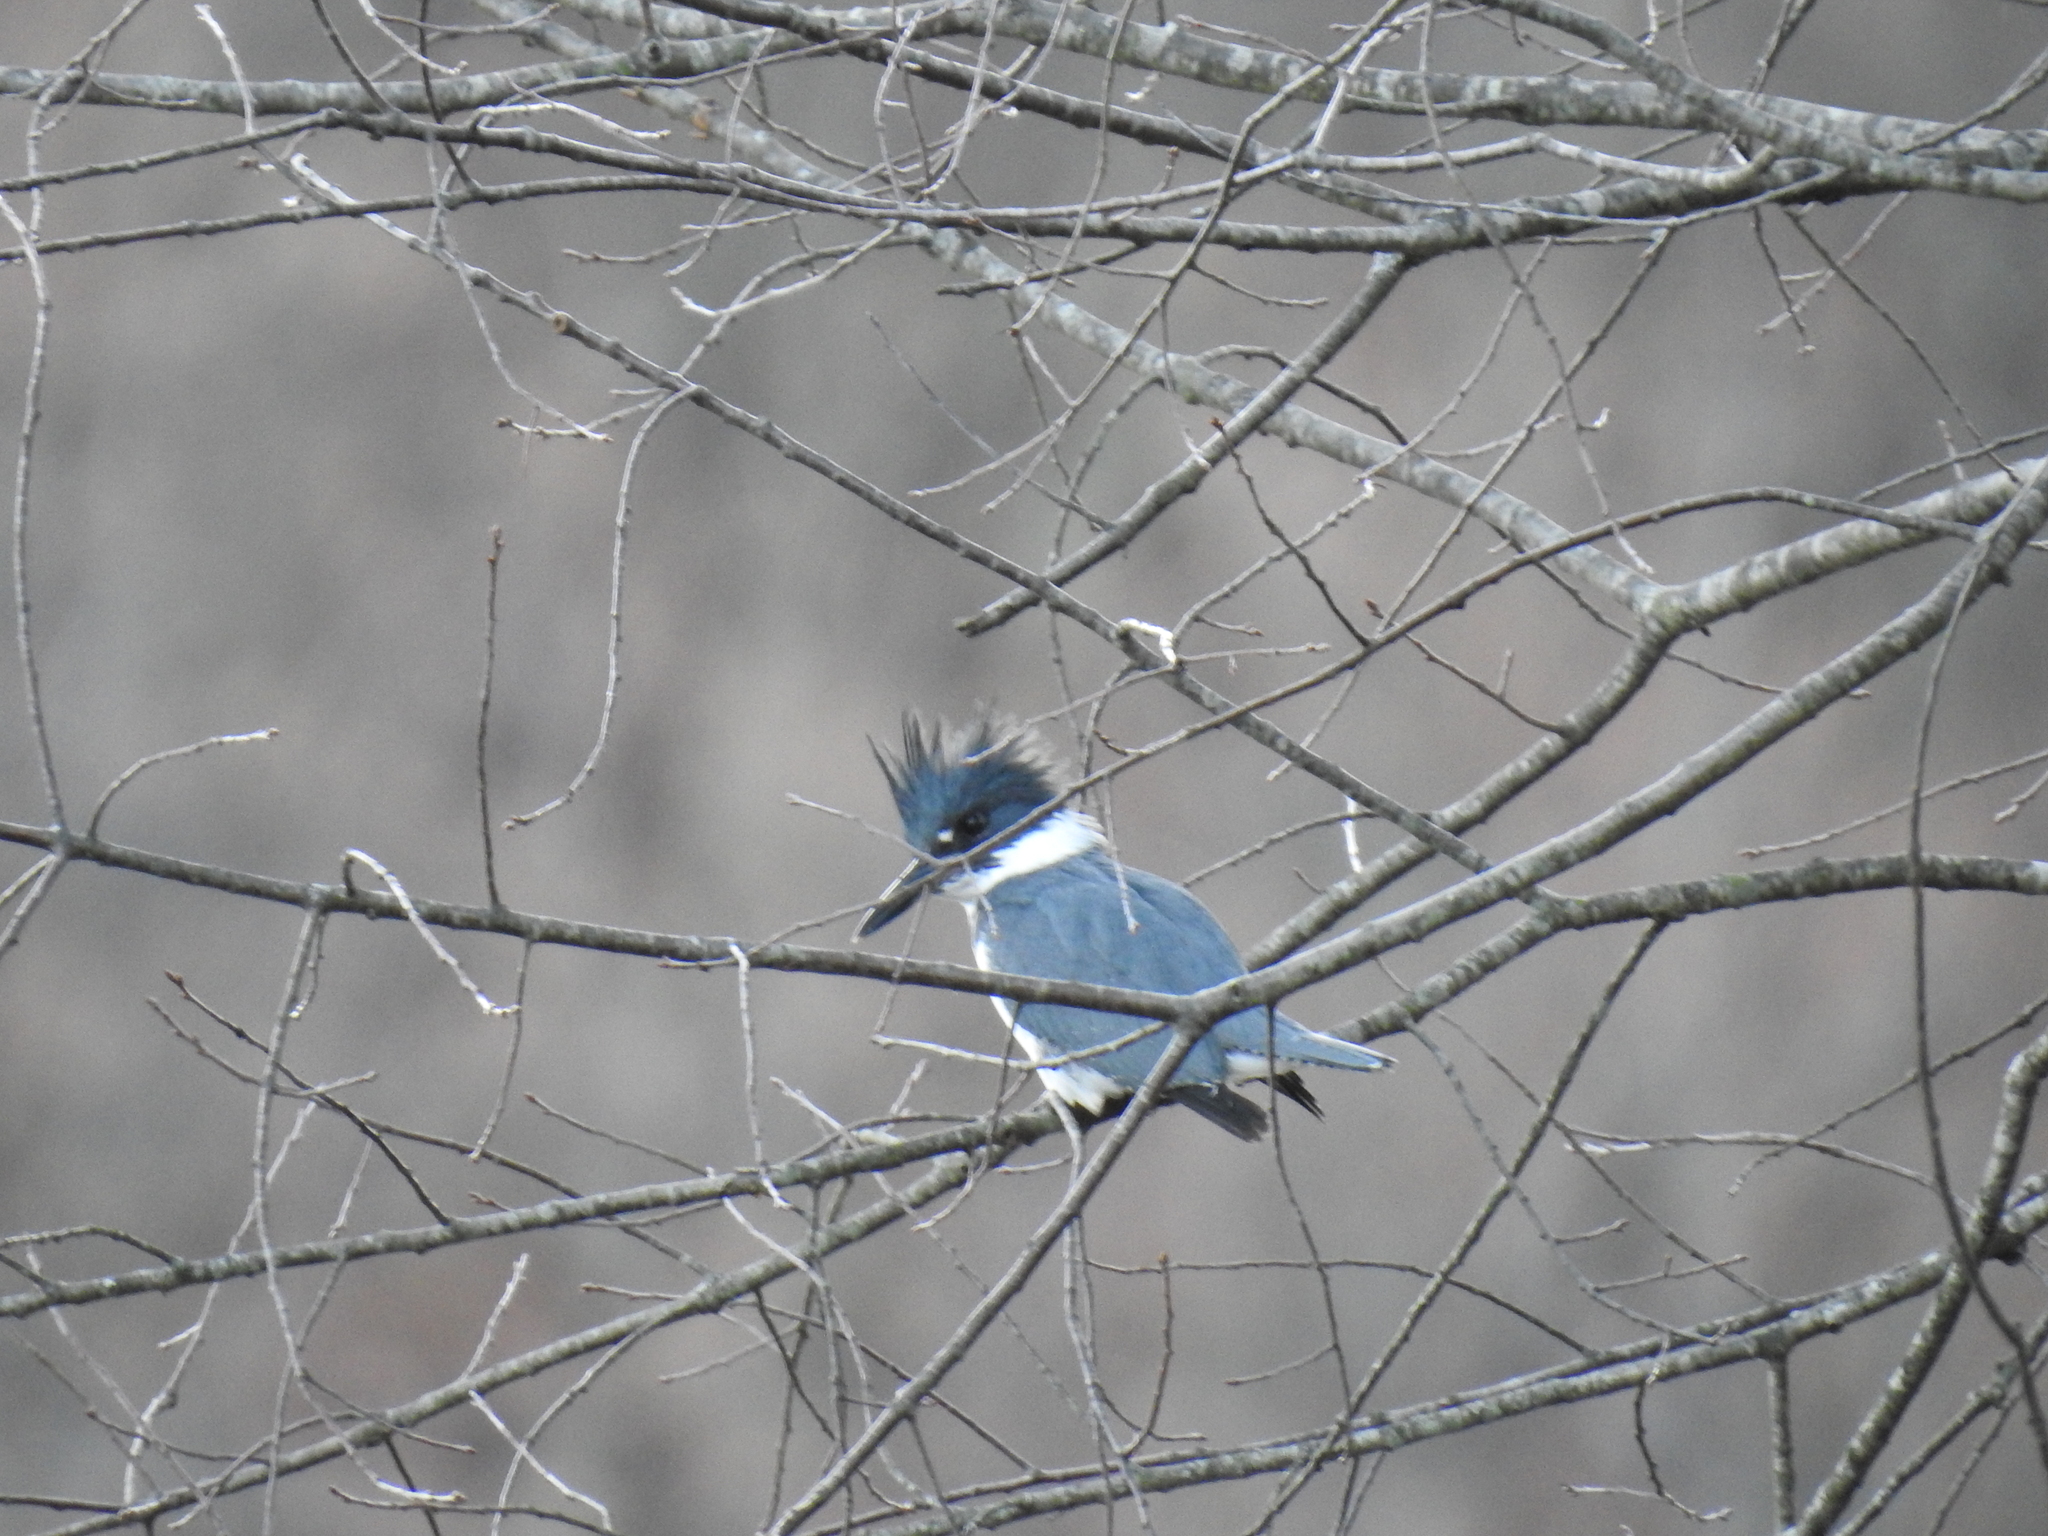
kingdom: Animalia
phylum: Chordata
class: Aves
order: Coraciiformes
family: Alcedinidae
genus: Megaceryle
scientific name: Megaceryle alcyon
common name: Belted kingfisher
